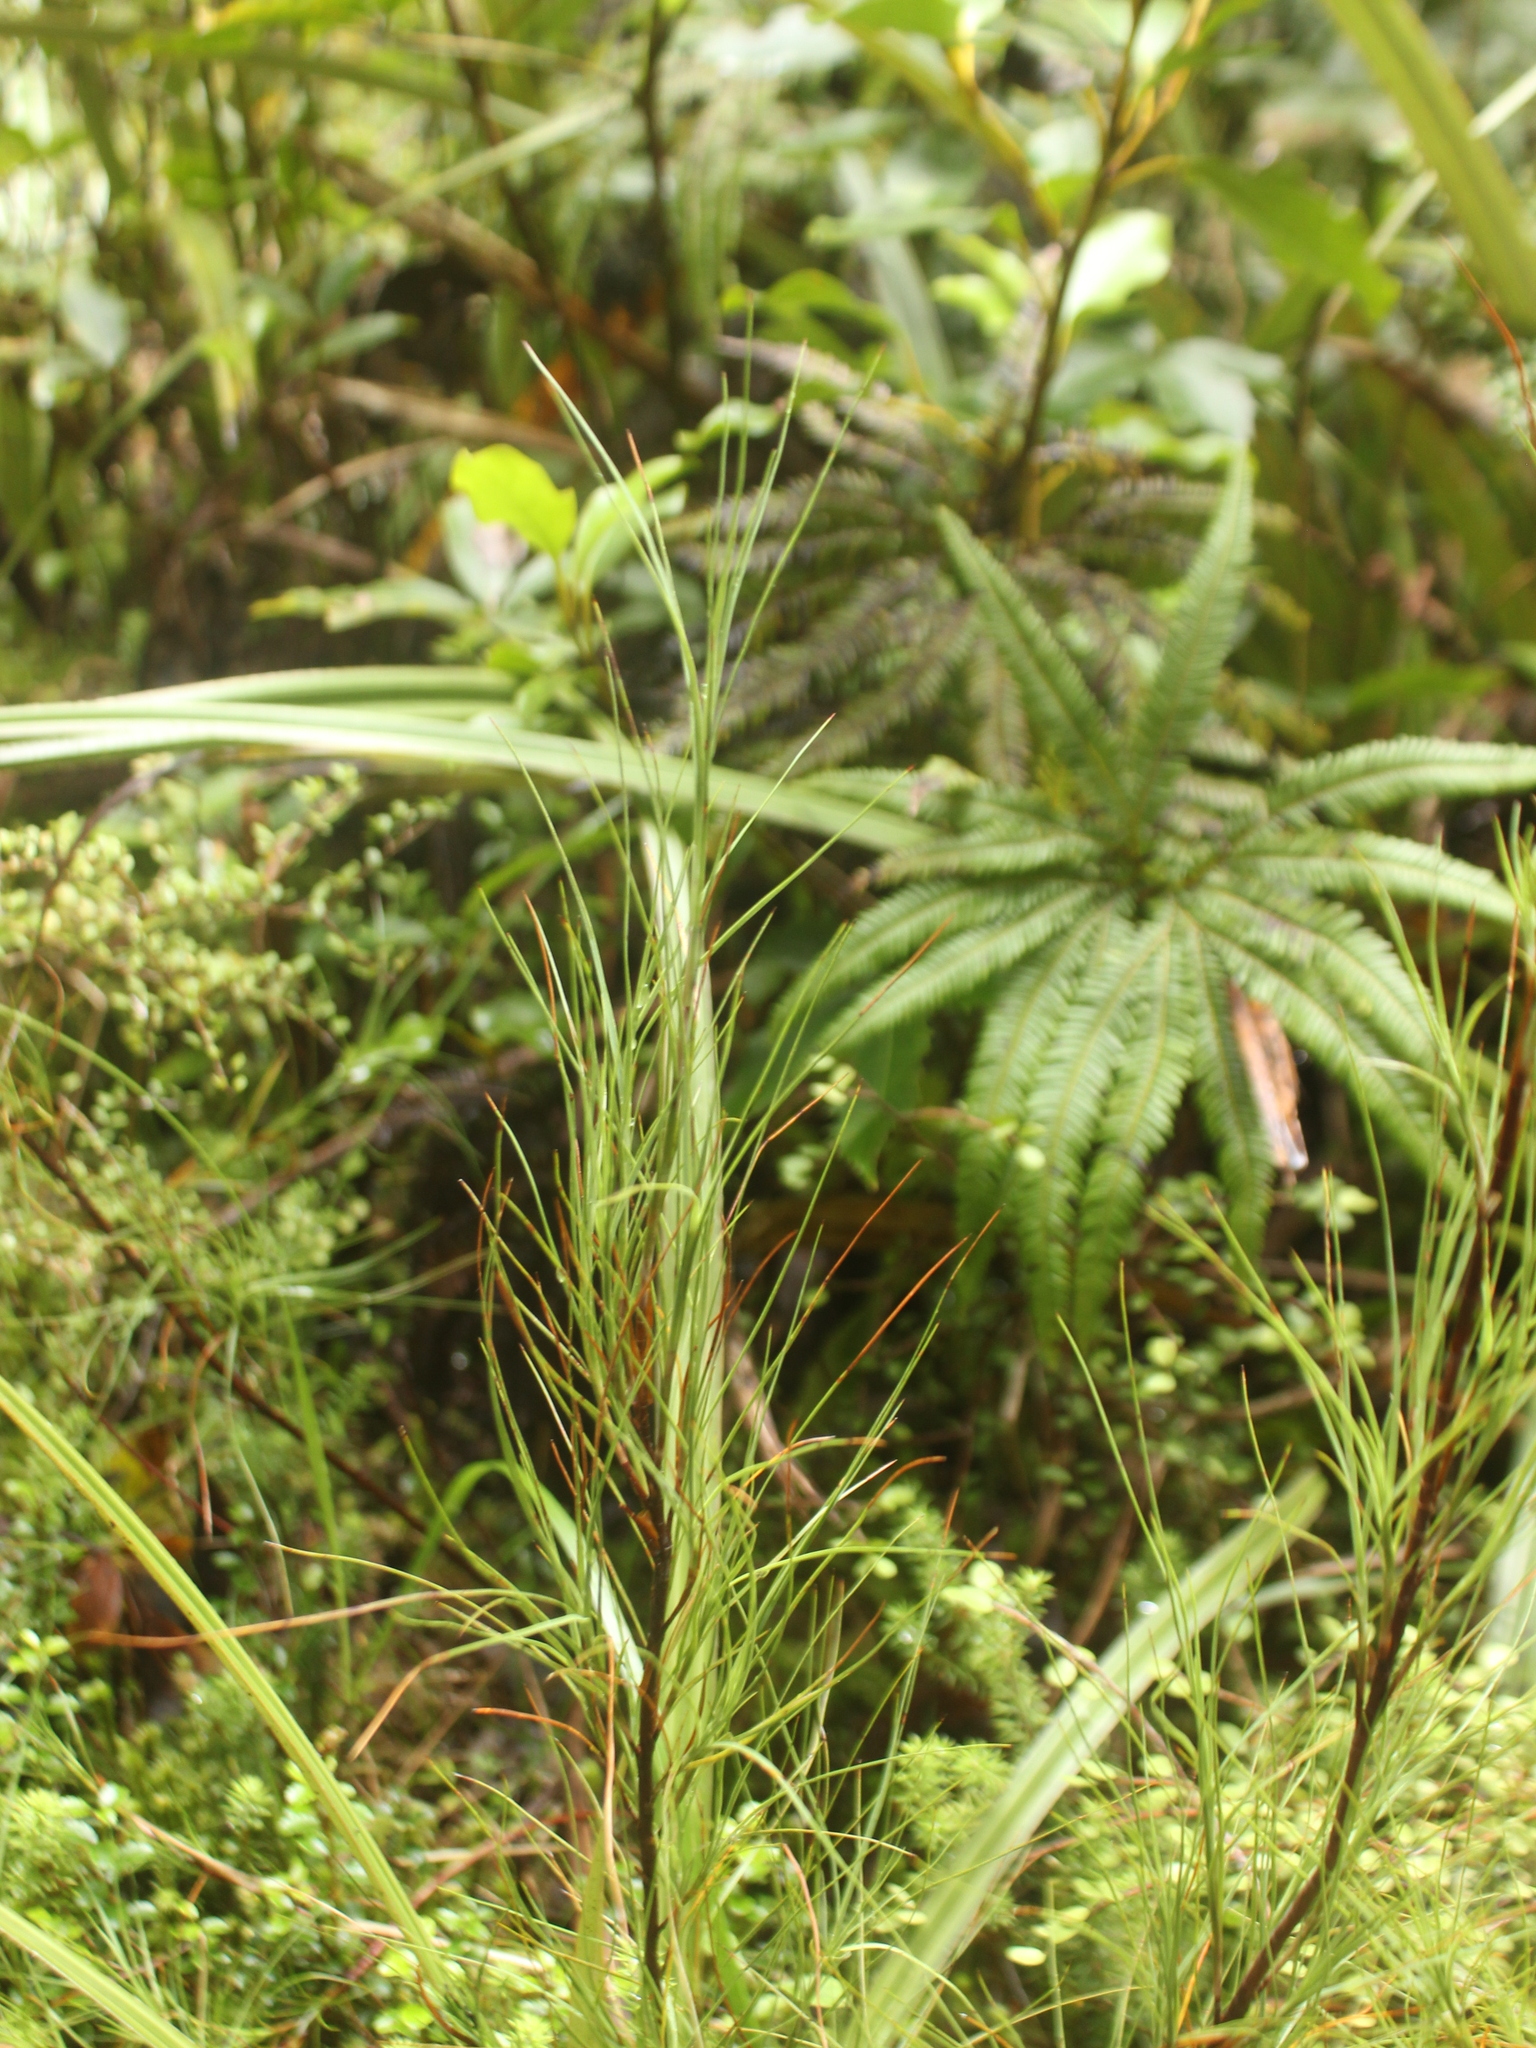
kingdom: Plantae
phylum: Tracheophyta
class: Magnoliopsida
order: Ericales
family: Ericaceae
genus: Dracophyllum
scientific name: Dracophyllum filifolium
